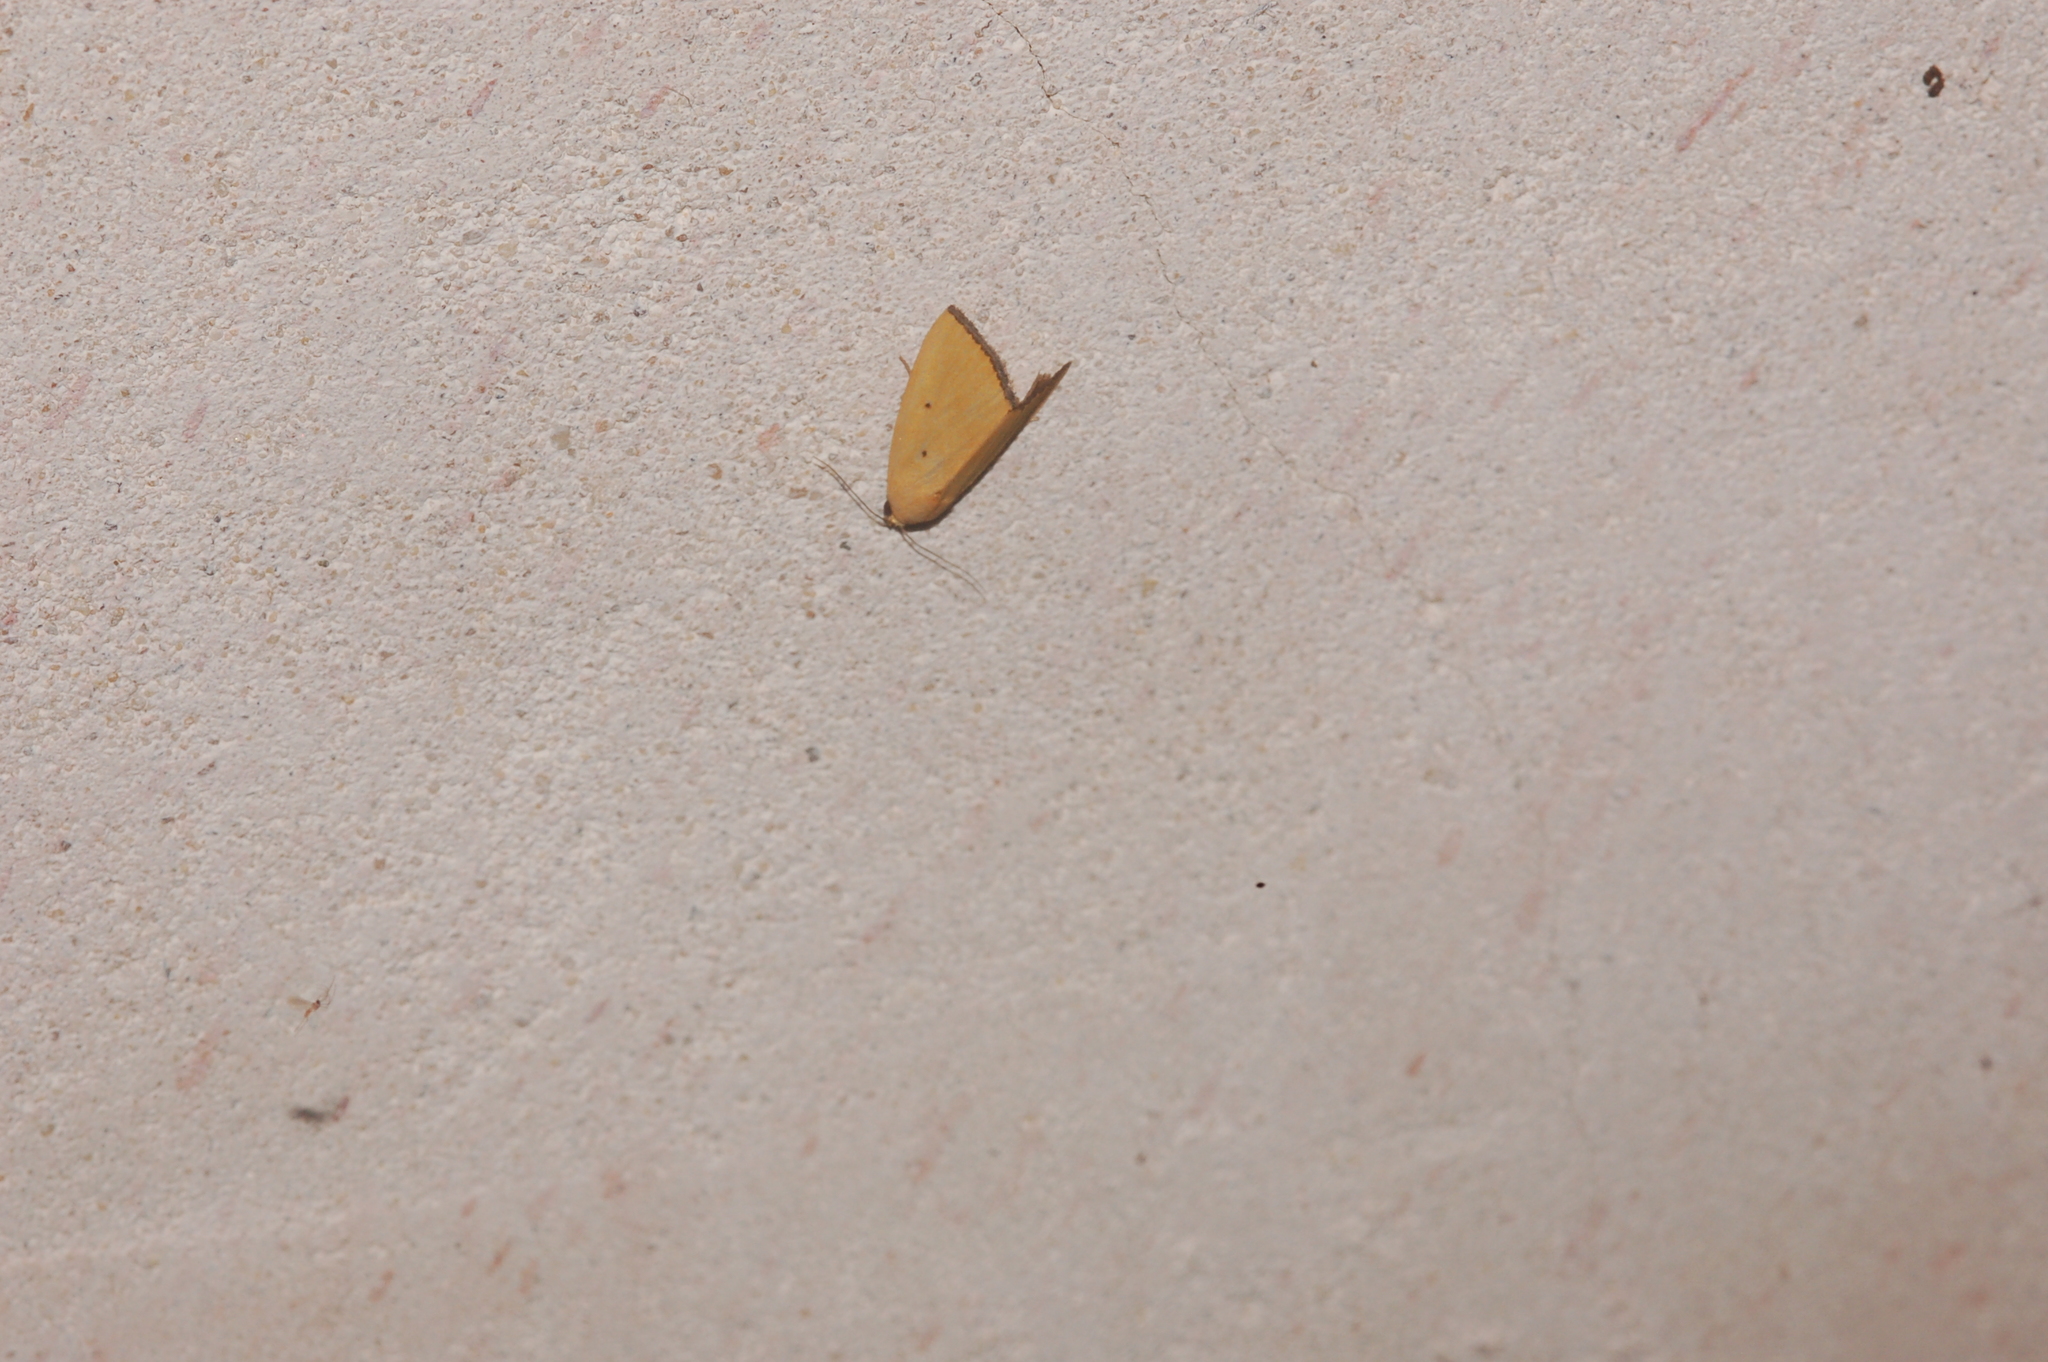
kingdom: Animalia
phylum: Arthropoda
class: Insecta
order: Lepidoptera
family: Noctuidae
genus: Marimatha
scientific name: Marimatha nigrofimbria
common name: Black-bordered lemon moth
